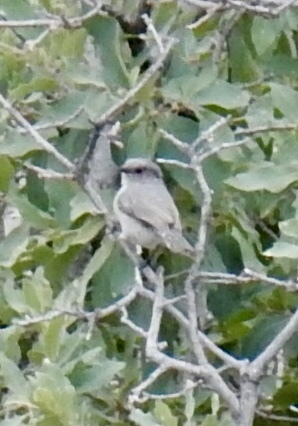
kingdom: Animalia
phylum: Chordata
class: Aves
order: Passeriformes
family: Aegithalidae
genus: Psaltriparus
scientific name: Psaltriparus minimus
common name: American bushtit
